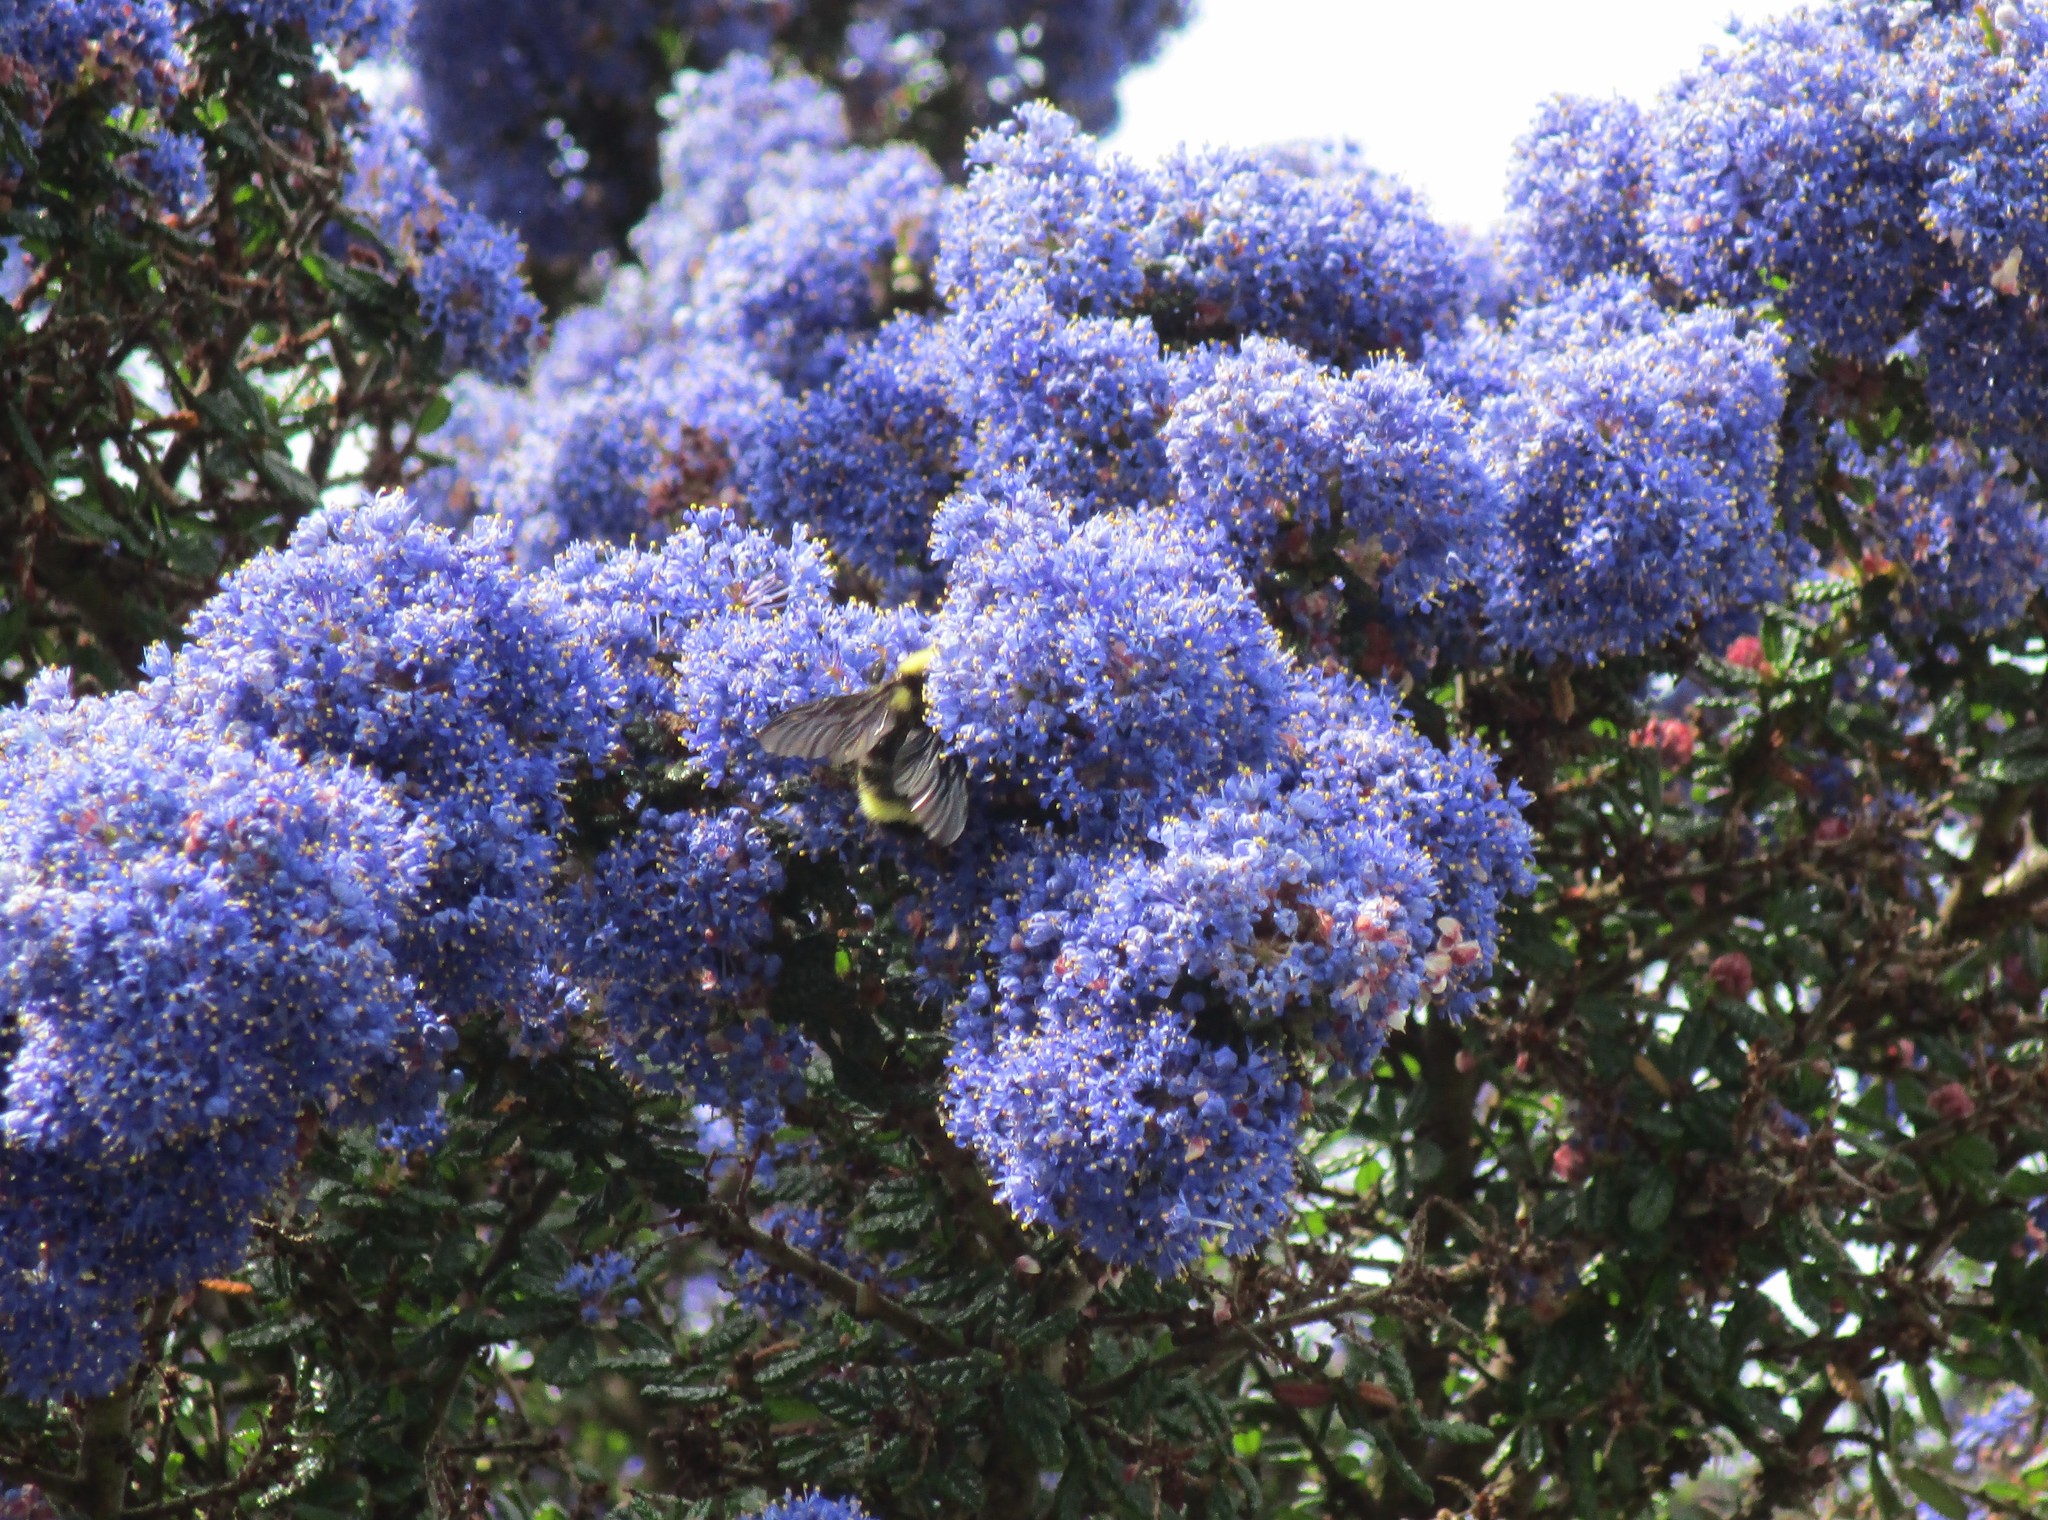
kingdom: Animalia
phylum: Arthropoda
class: Insecta
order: Hymenoptera
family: Apidae
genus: Bombus
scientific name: Bombus californicus
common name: California bumble bee
